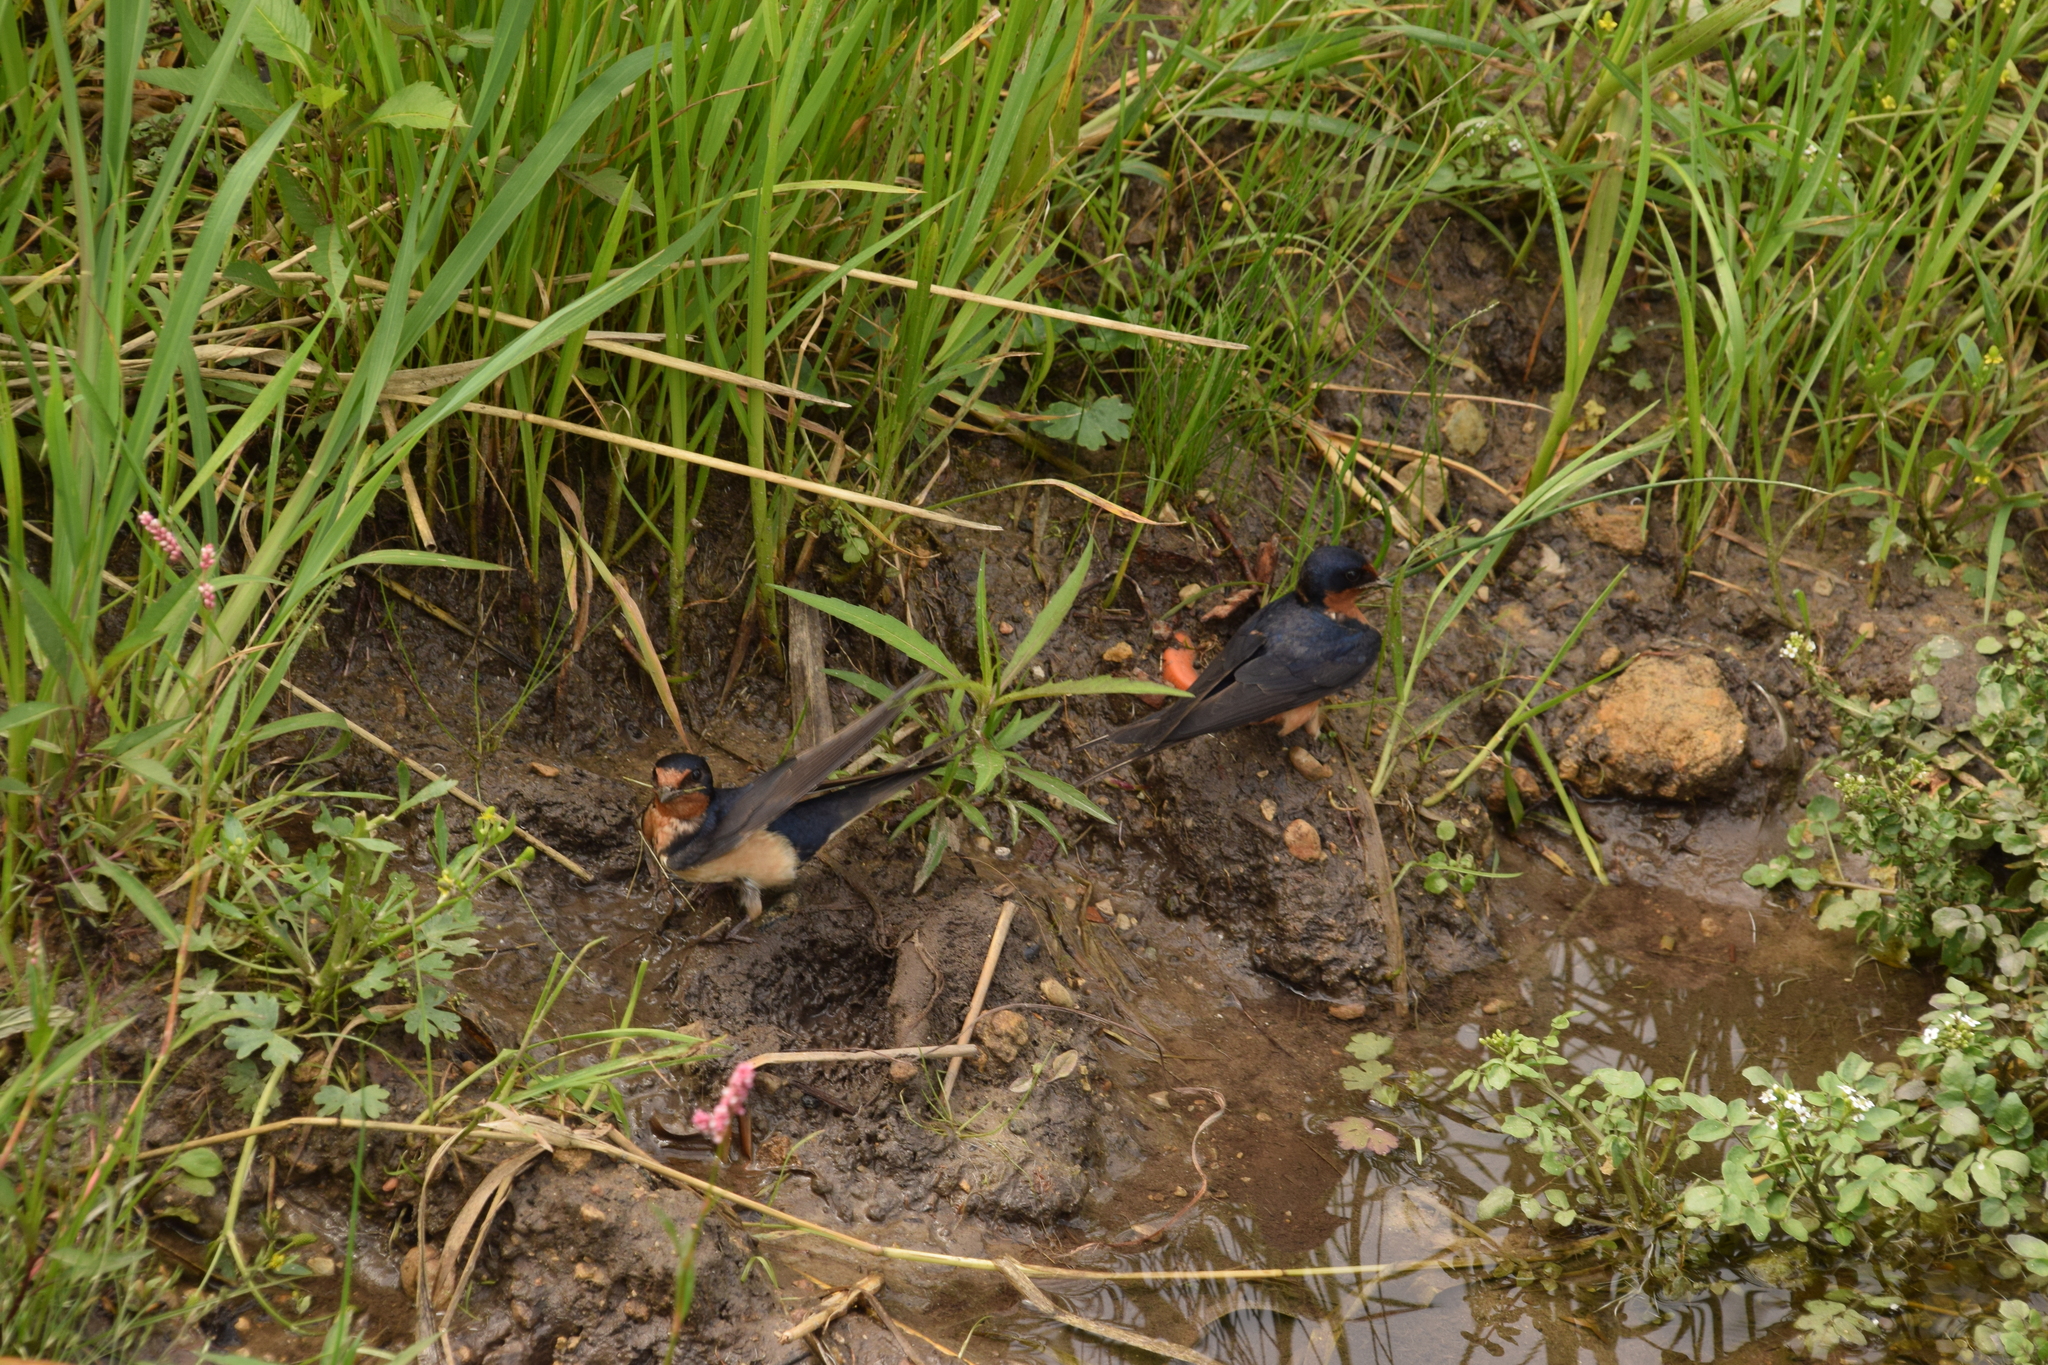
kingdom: Animalia
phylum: Chordata
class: Aves
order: Passeriformes
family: Hirundinidae
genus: Hirundo
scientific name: Hirundo rustica
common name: Barn swallow
